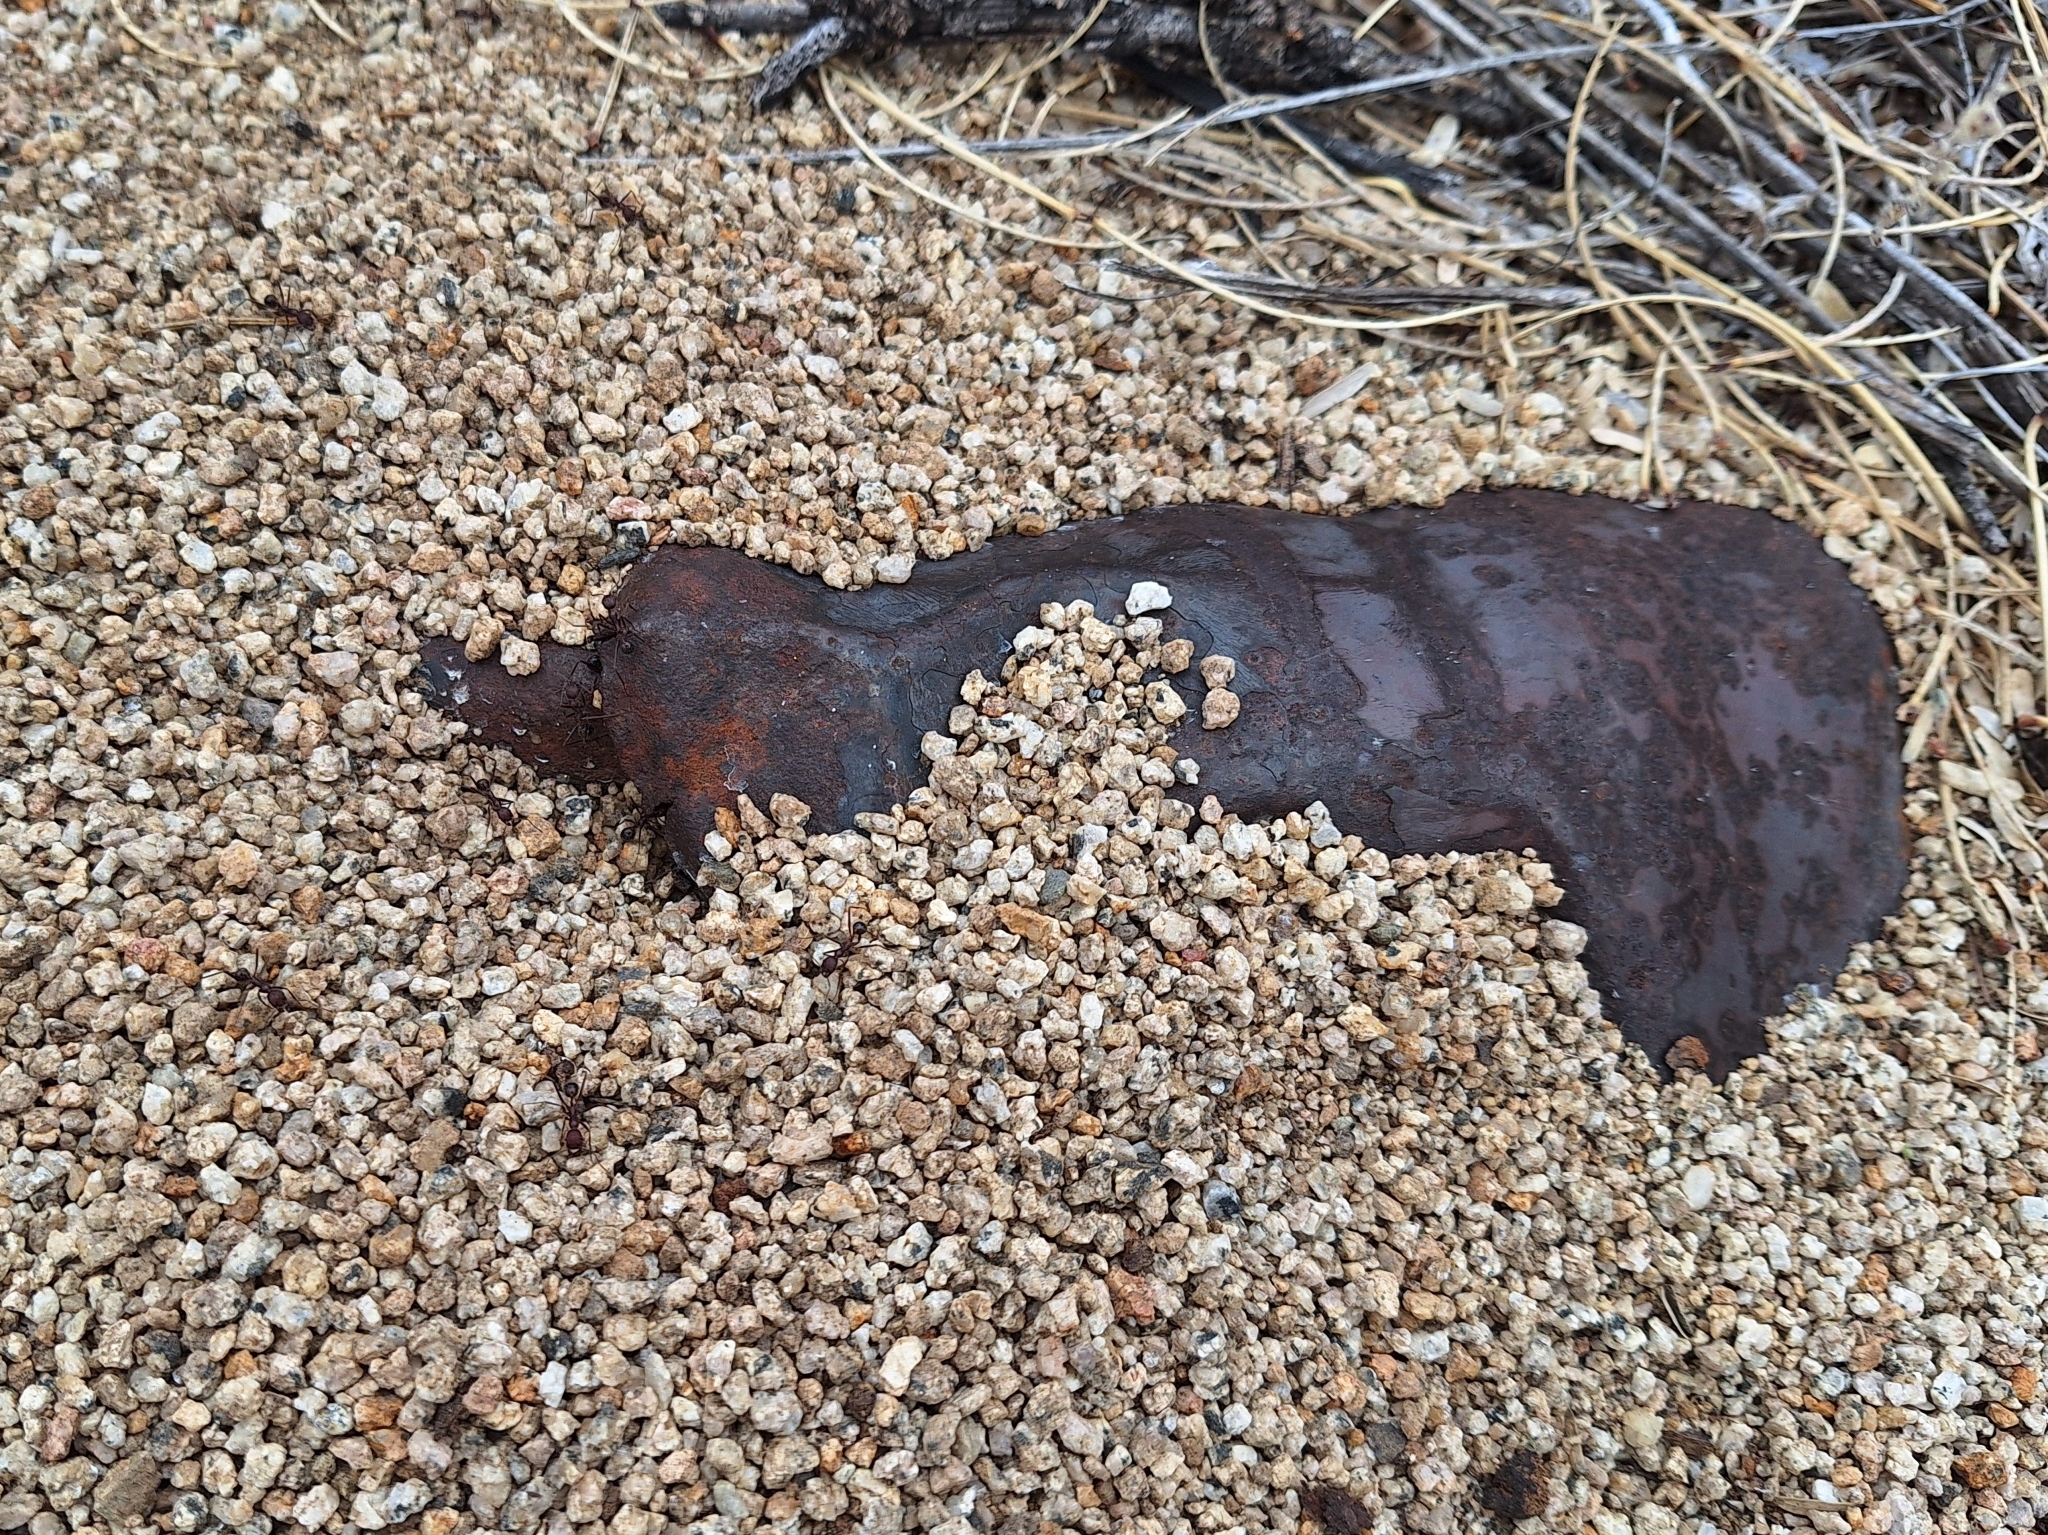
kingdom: Animalia
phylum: Arthropoda
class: Insecta
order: Hymenoptera
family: Formicidae
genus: Novomessor
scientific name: Novomessor albisetosa
